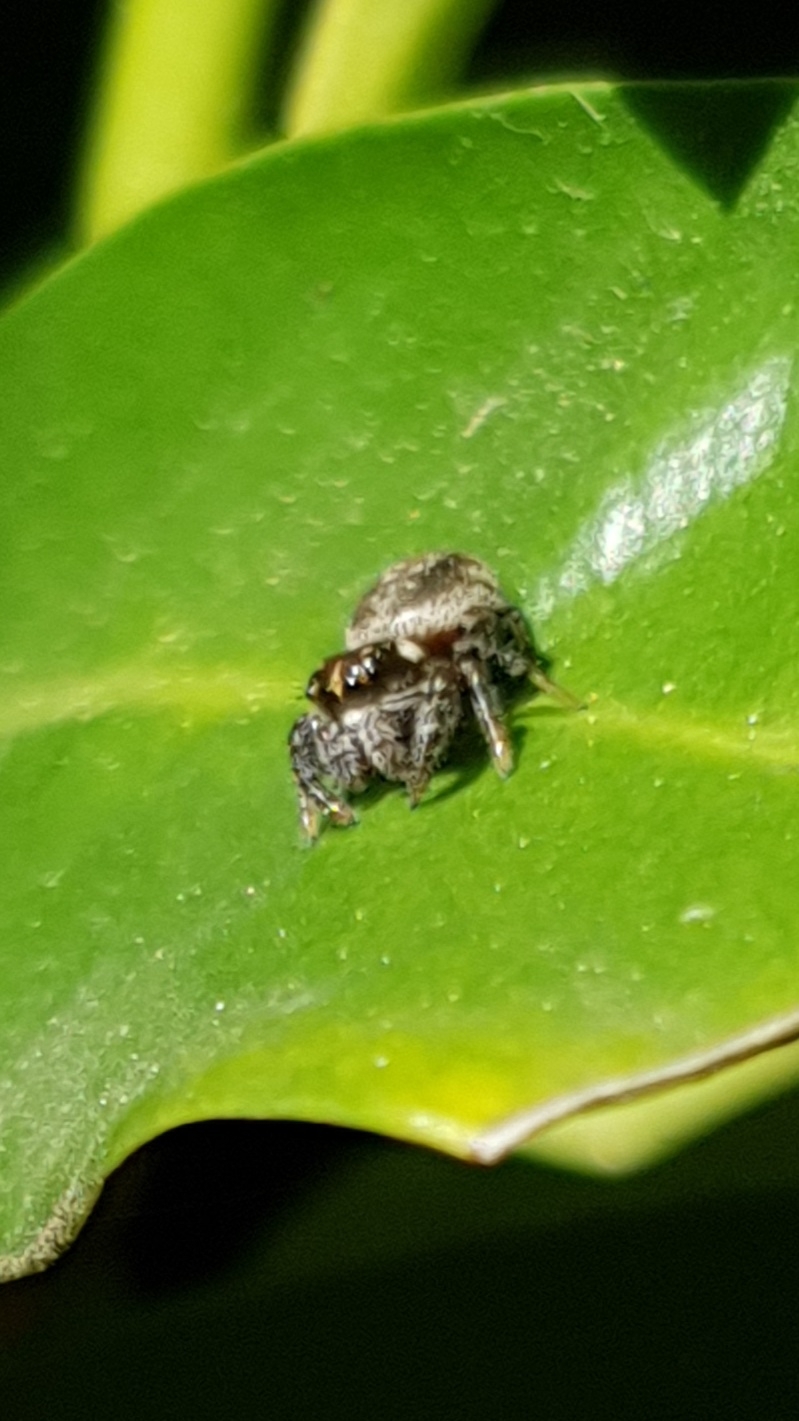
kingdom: Animalia
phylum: Arthropoda
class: Arachnida
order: Araneae
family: Salticidae
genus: Macaroeris
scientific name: Macaroeris nidicolens
